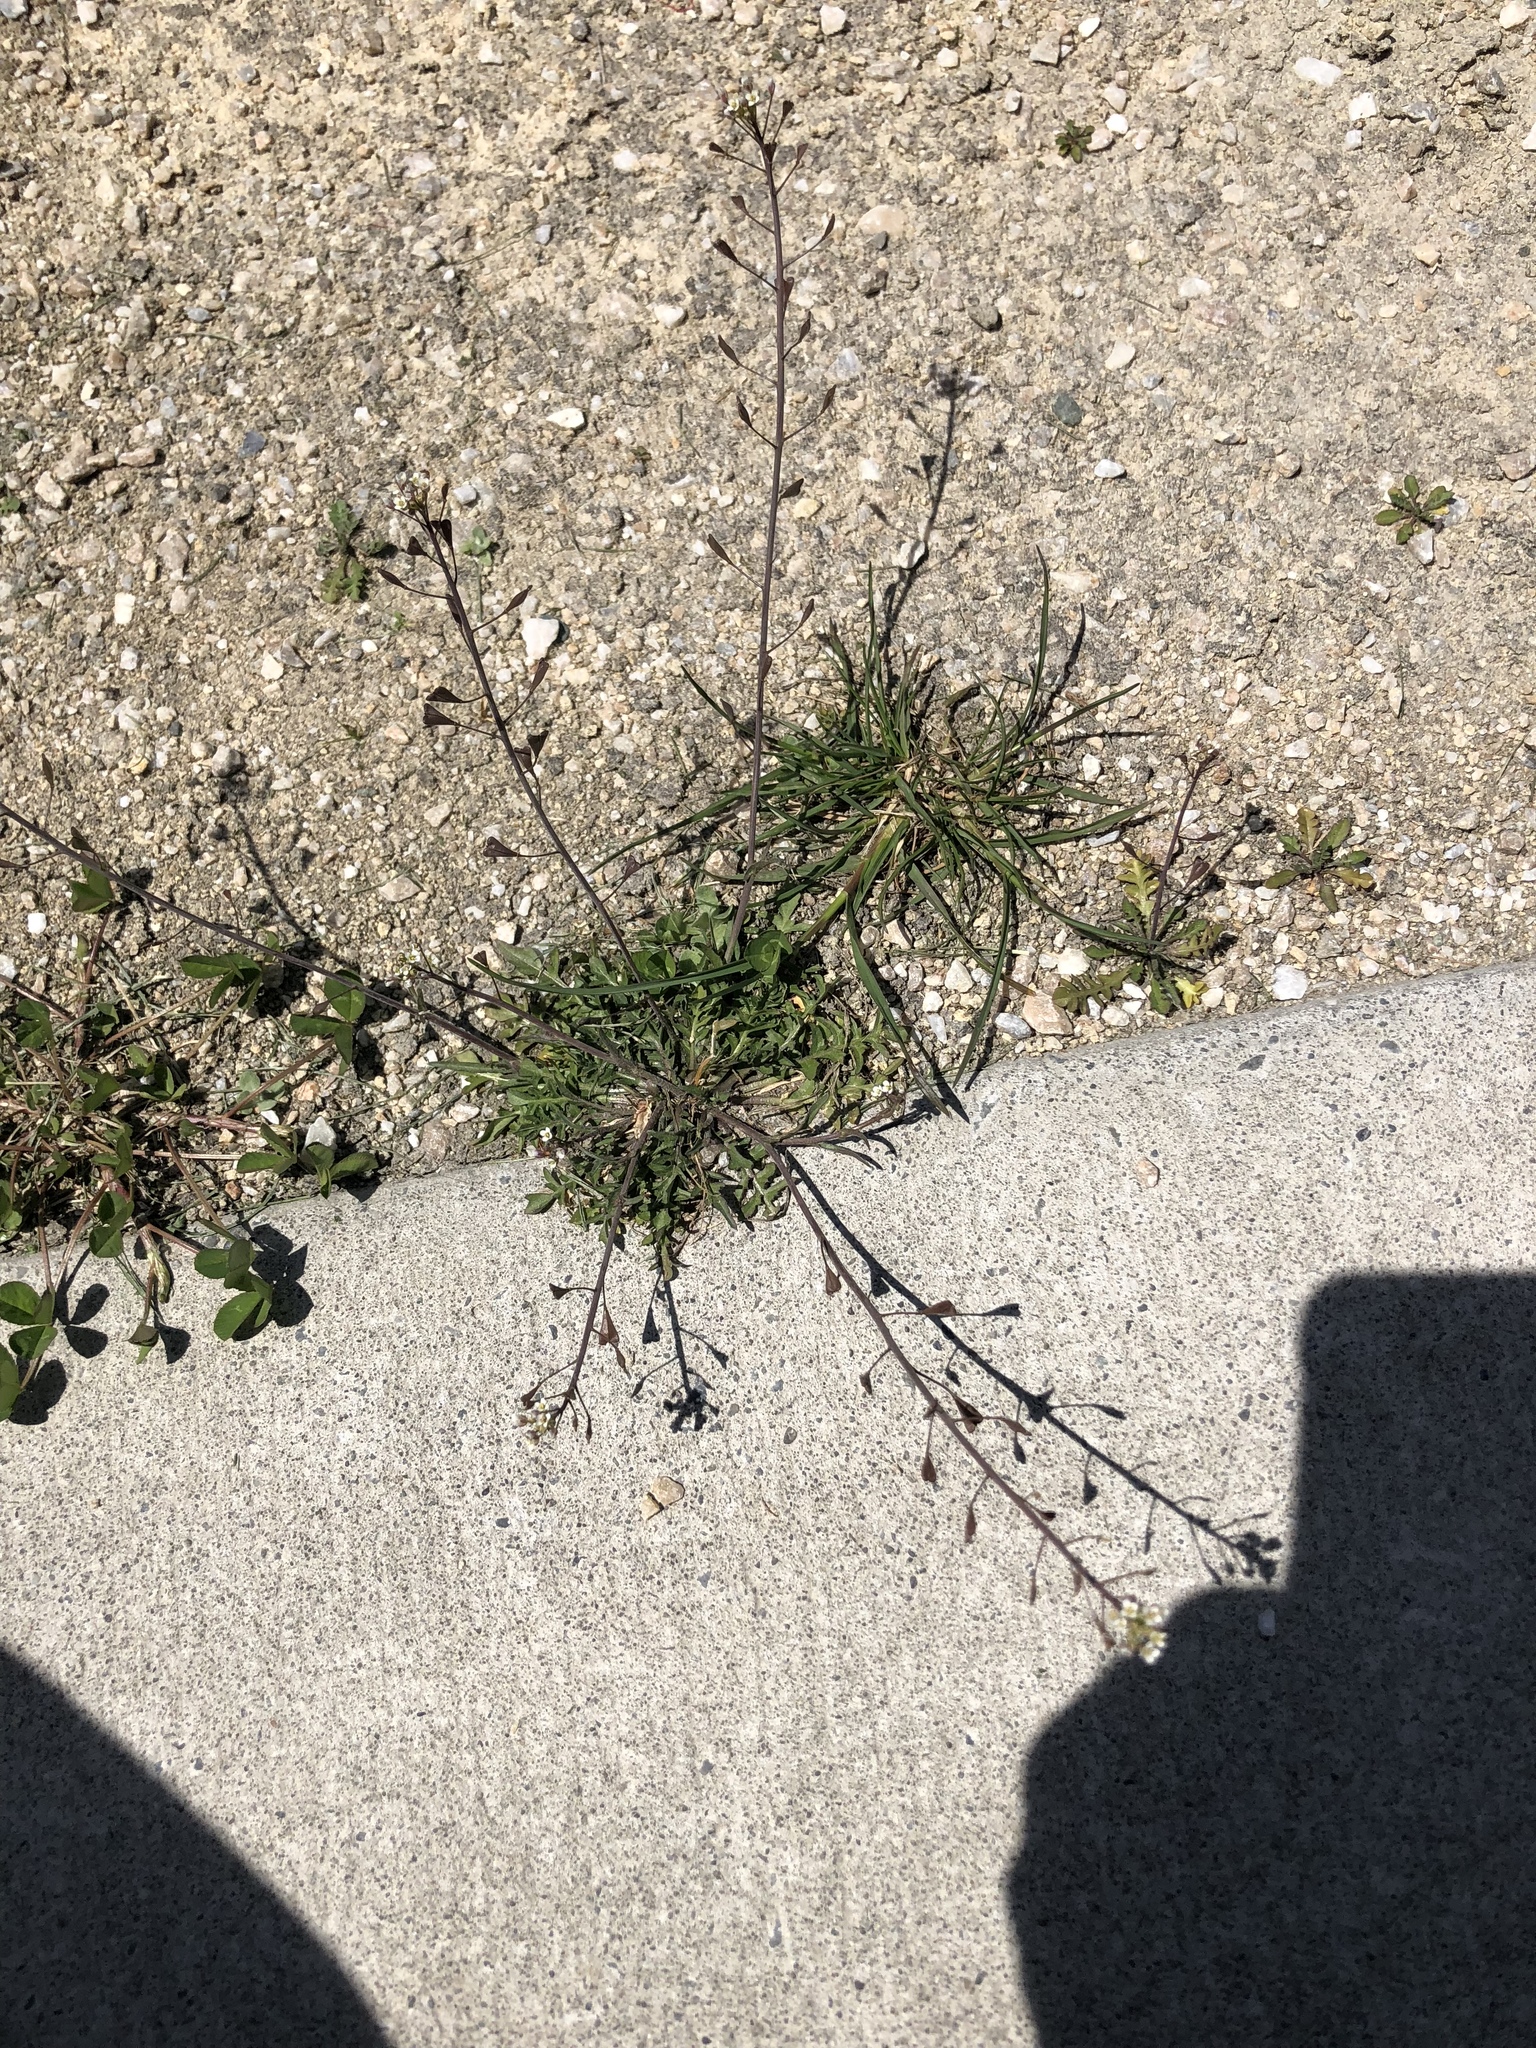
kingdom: Plantae
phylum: Tracheophyta
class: Magnoliopsida
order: Brassicales
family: Brassicaceae
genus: Capsella
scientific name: Capsella bursa-pastoris
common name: Shepherd's purse
